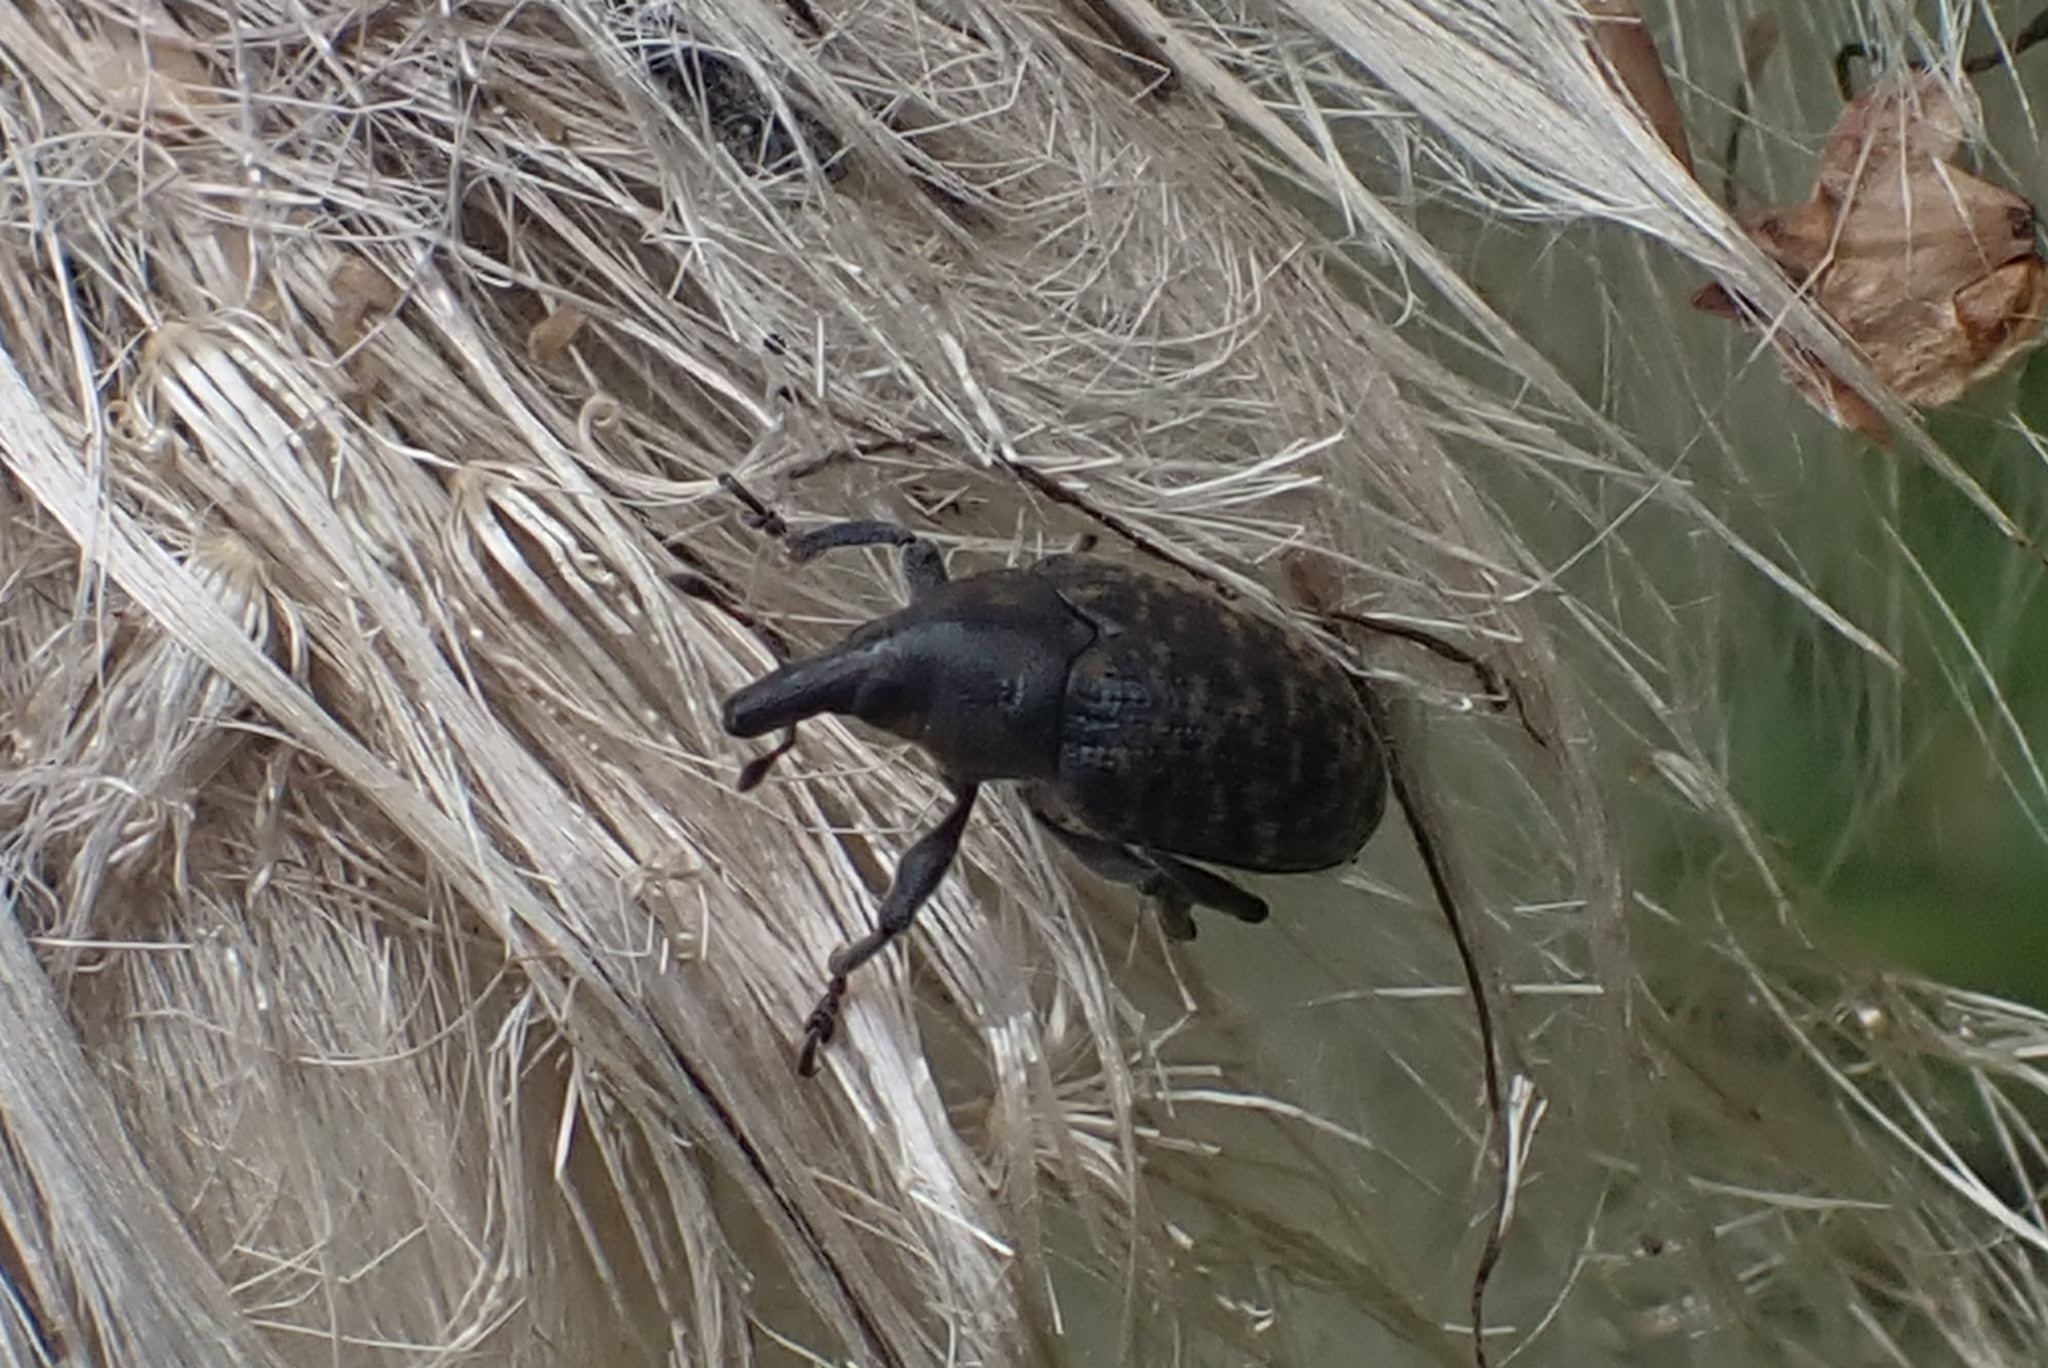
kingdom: Animalia
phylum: Arthropoda
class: Insecta
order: Coleoptera
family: Curculionidae
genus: Larinus
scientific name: Larinus turbinatus
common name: Weevil
